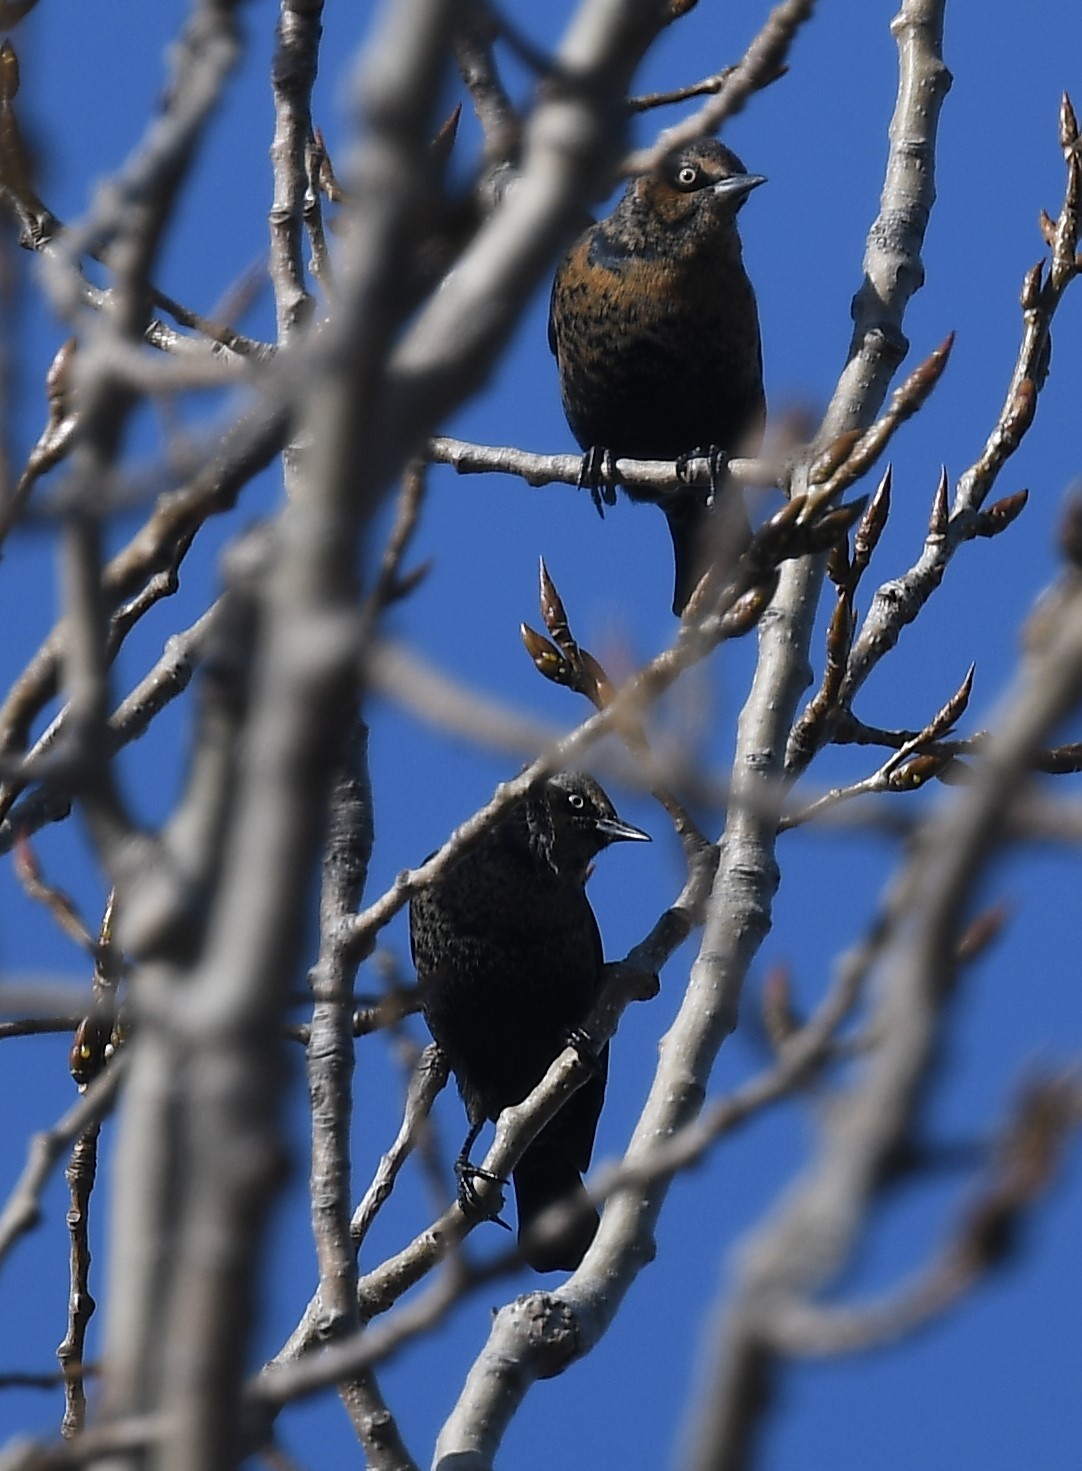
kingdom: Animalia
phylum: Chordata
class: Aves
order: Passeriformes
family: Icteridae
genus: Euphagus
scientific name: Euphagus carolinus
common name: Rusty blackbird
